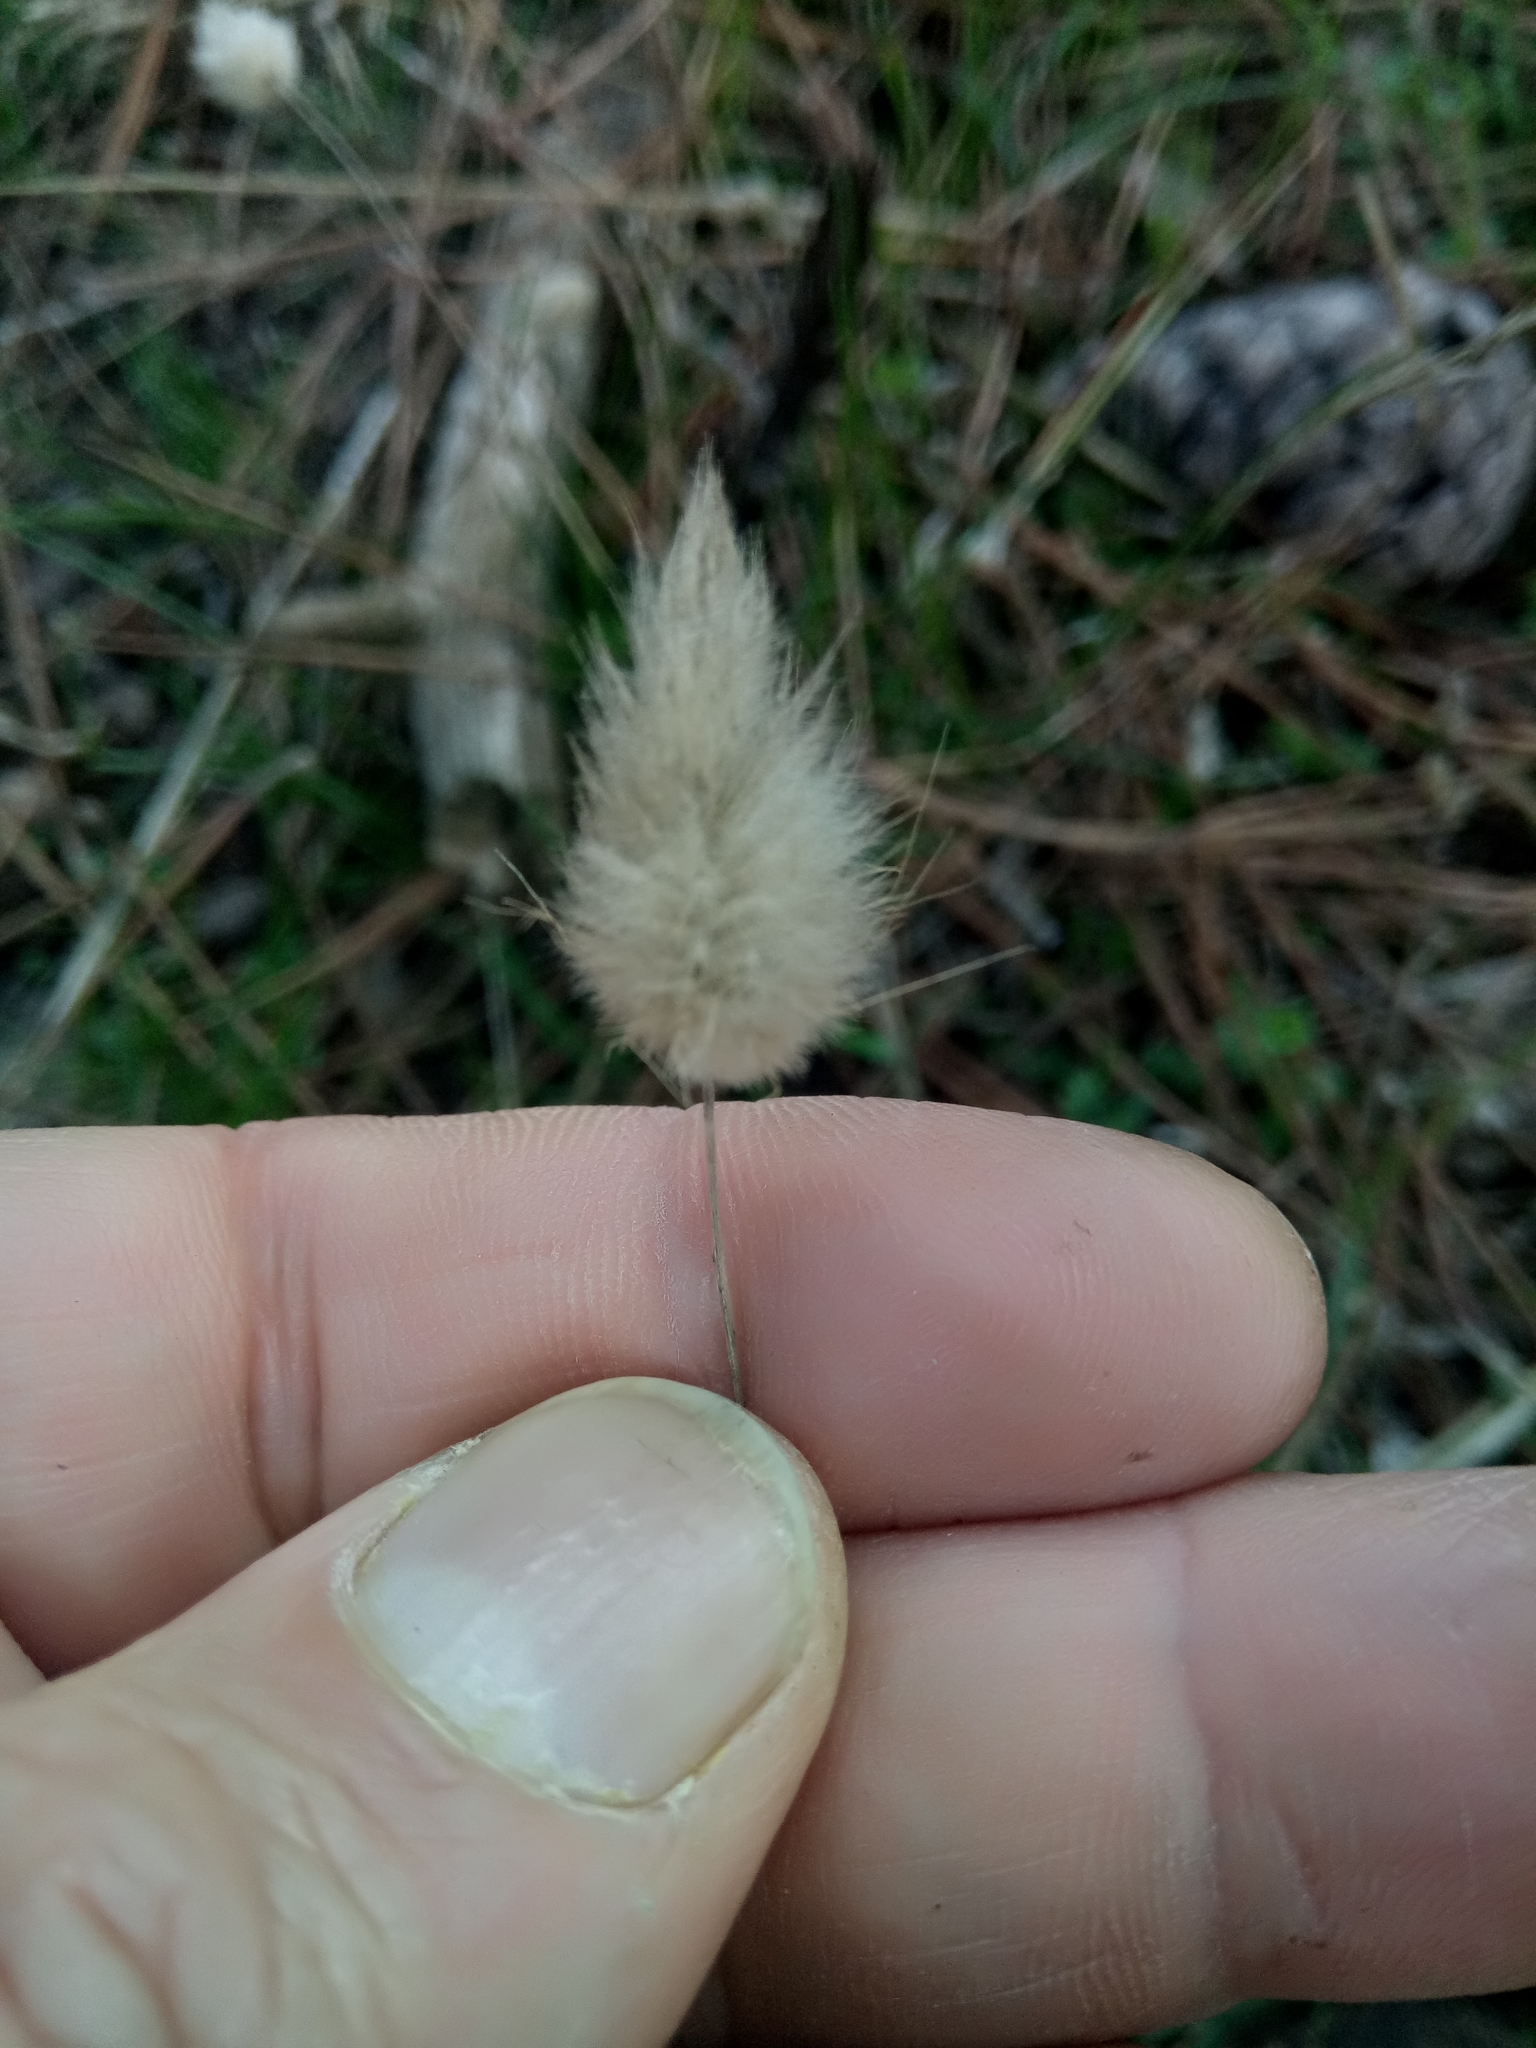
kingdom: Plantae
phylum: Tracheophyta
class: Liliopsida
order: Poales
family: Poaceae
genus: Lagurus
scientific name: Lagurus ovatus
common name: Hare's-tail
